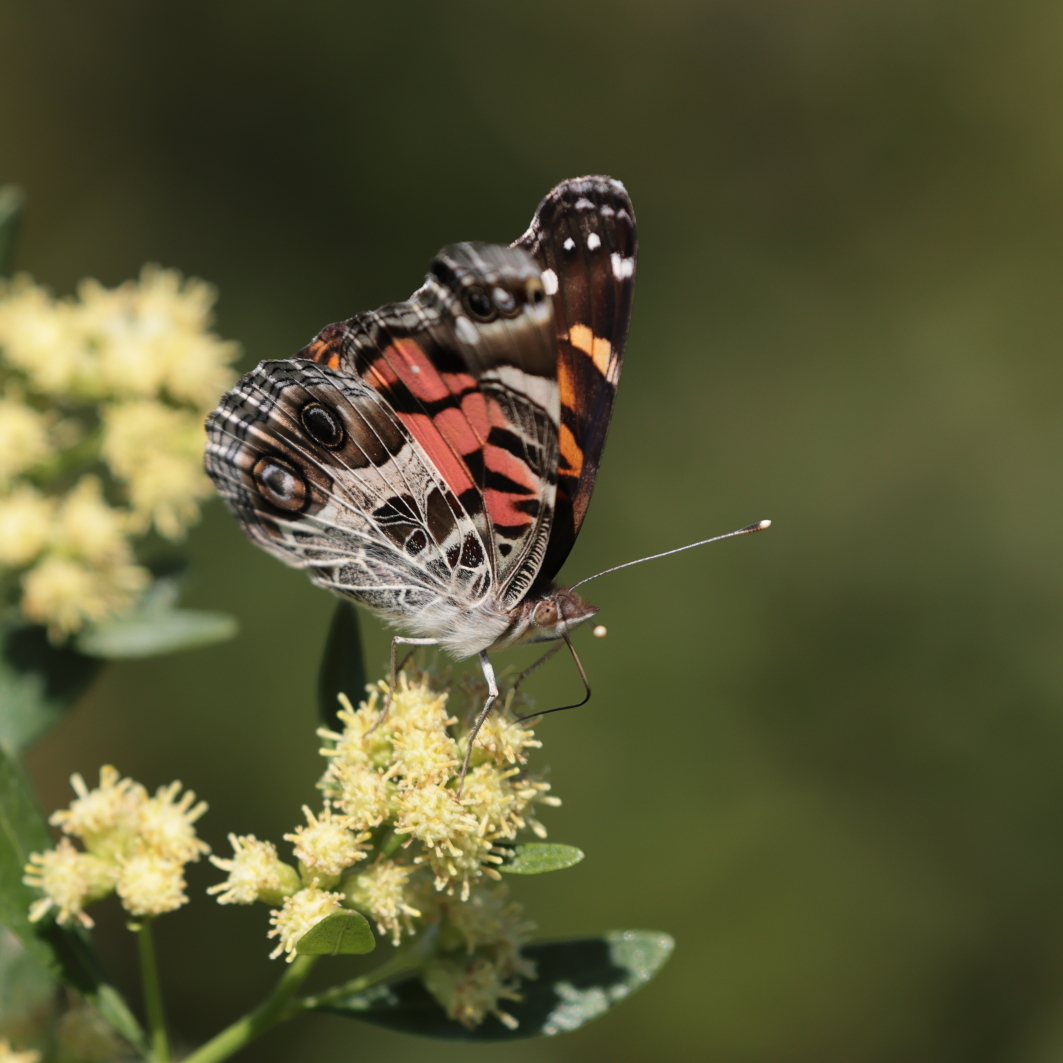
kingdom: Animalia
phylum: Arthropoda
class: Insecta
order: Lepidoptera
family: Nymphalidae
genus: Vanessa
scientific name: Vanessa virginiensis
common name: American lady
